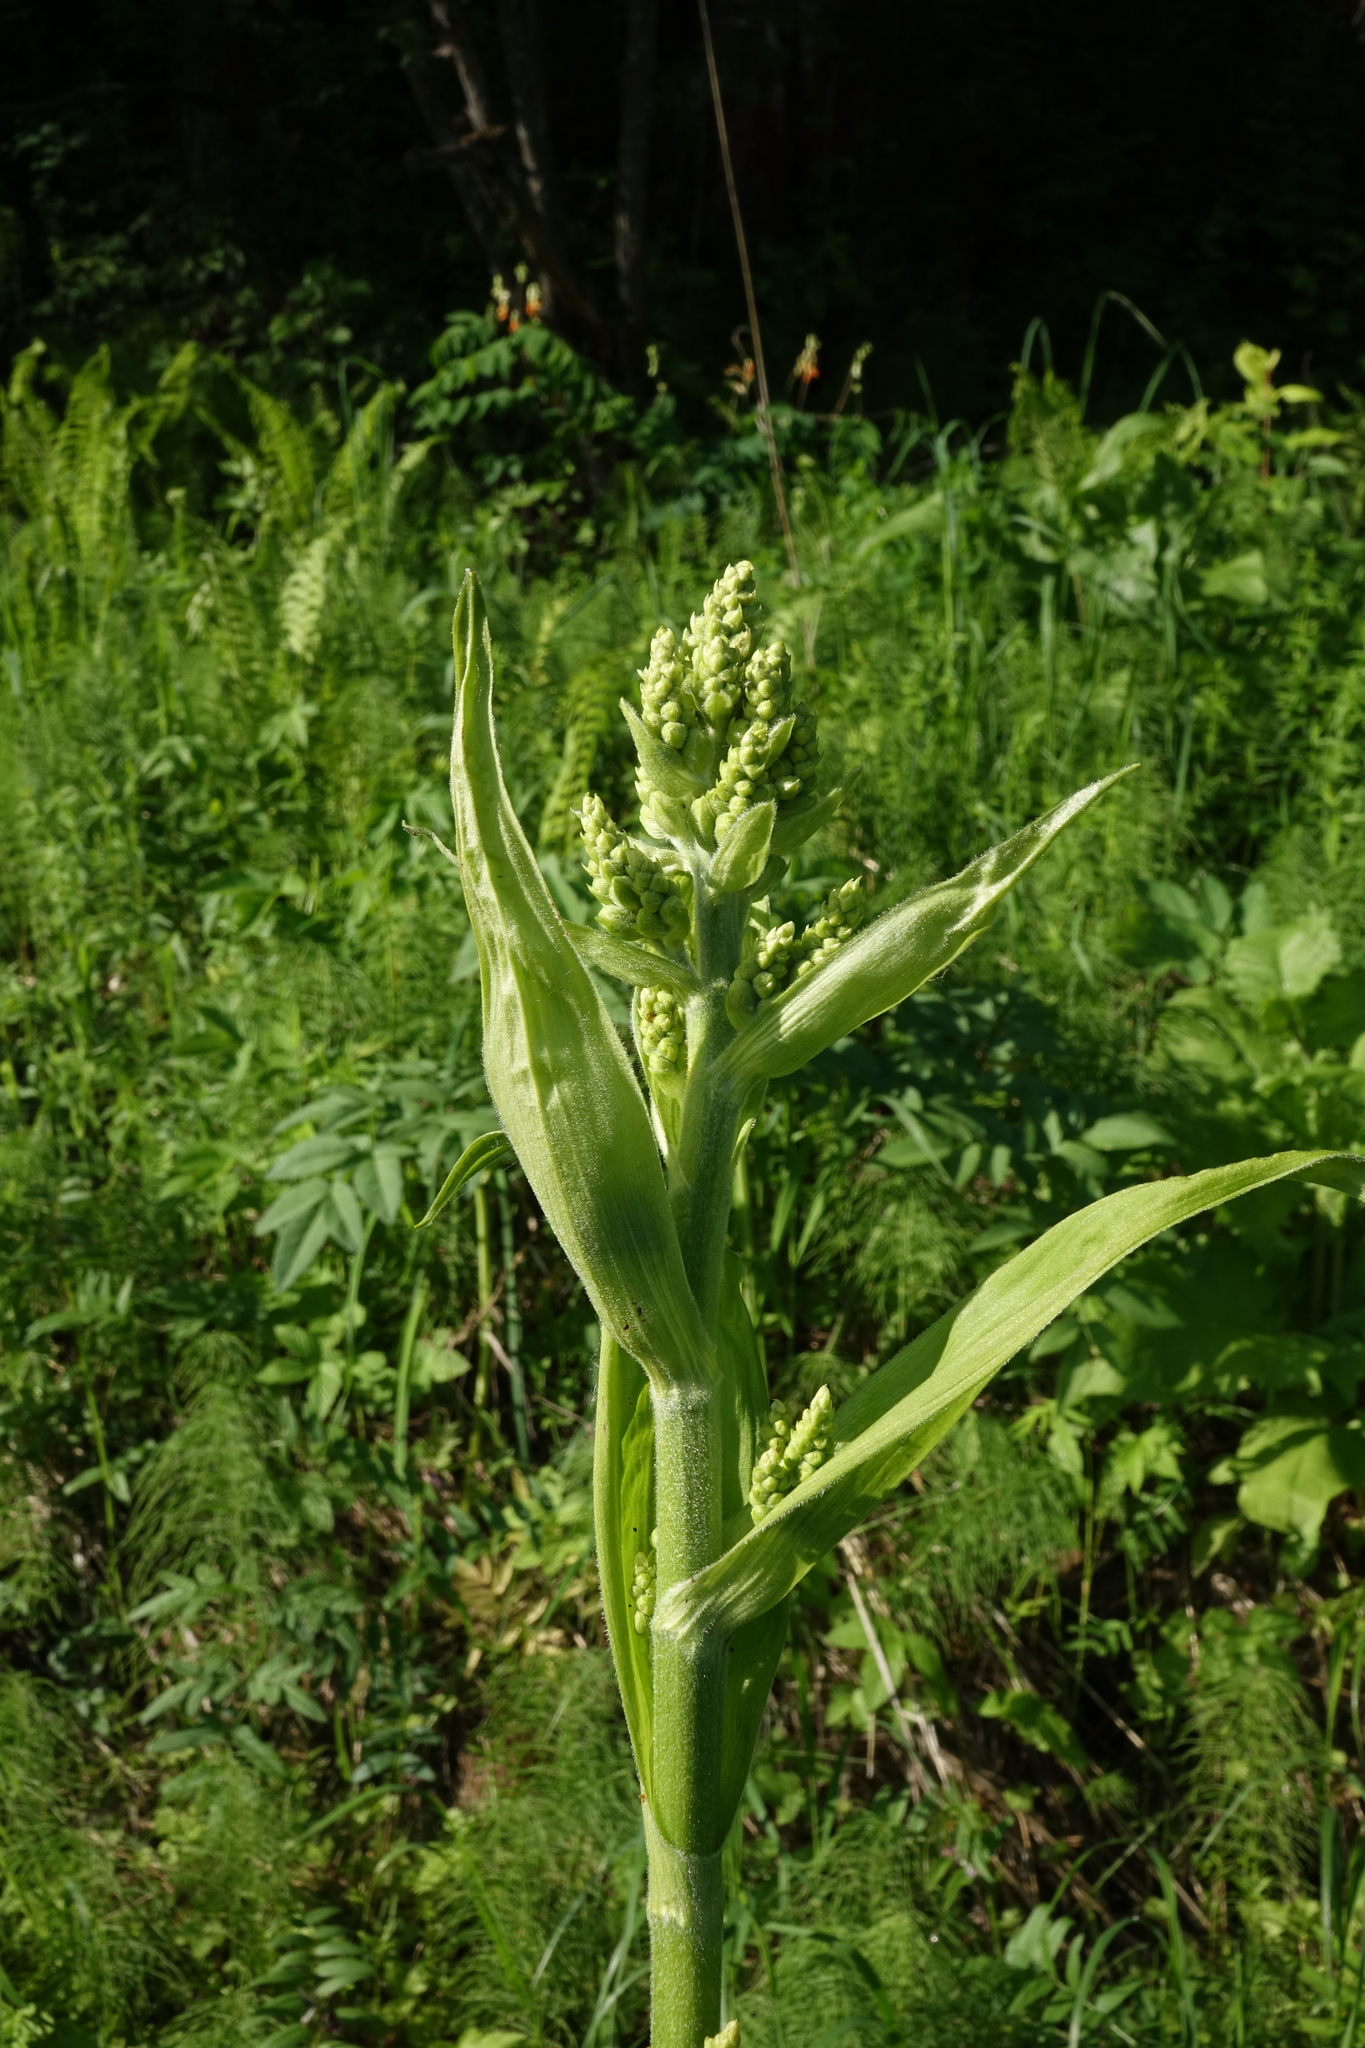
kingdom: Plantae
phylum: Tracheophyta
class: Liliopsida
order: Liliales
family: Melanthiaceae
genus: Veratrum
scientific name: Veratrum lobelianum
